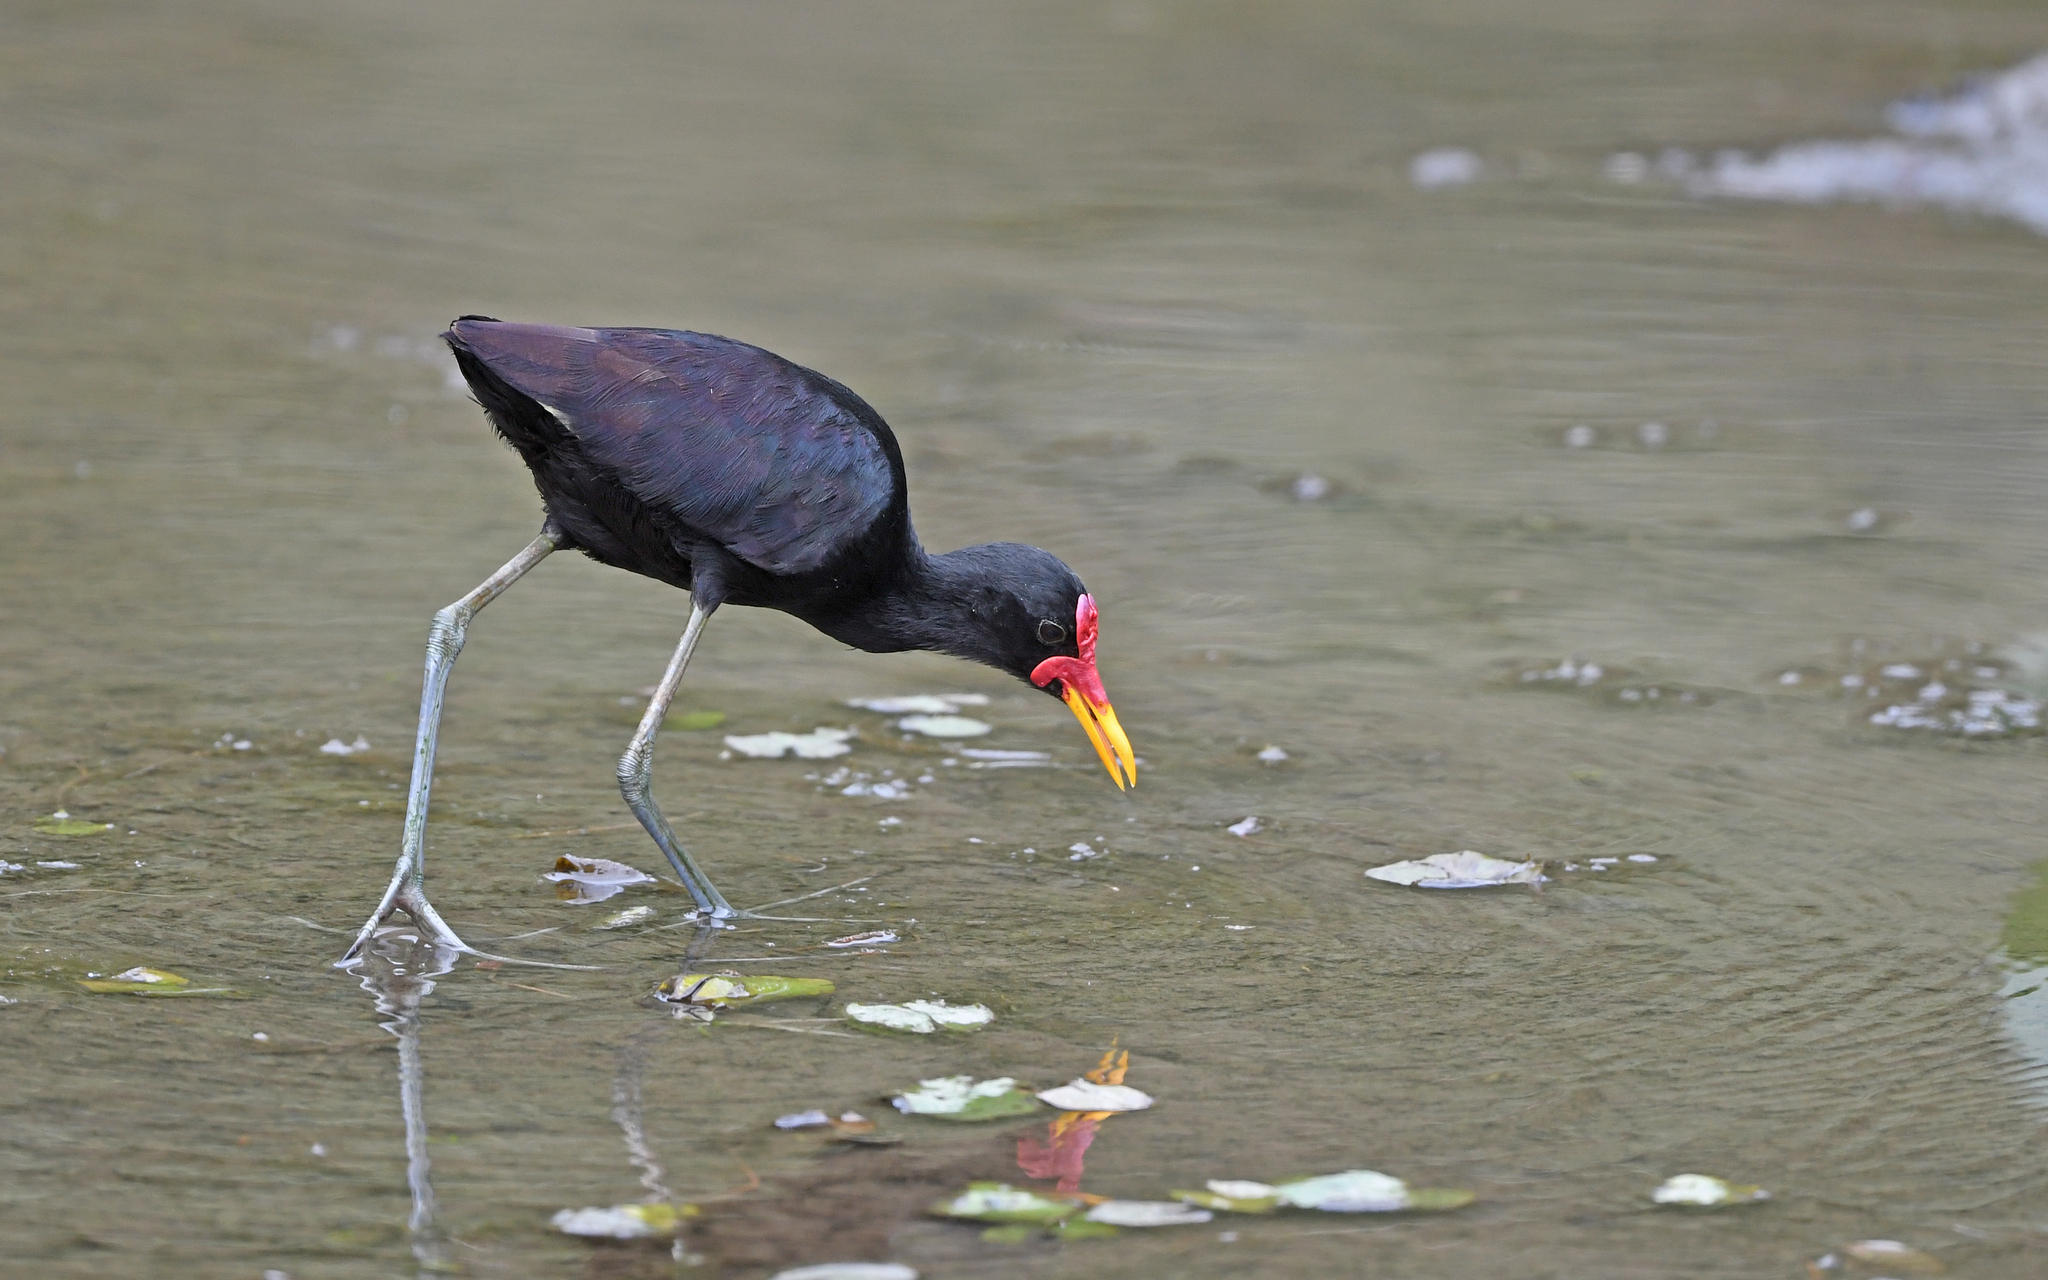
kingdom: Animalia
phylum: Chordata
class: Aves
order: Charadriiformes
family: Jacanidae
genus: Jacana
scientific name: Jacana jacana
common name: Wattled jacana
